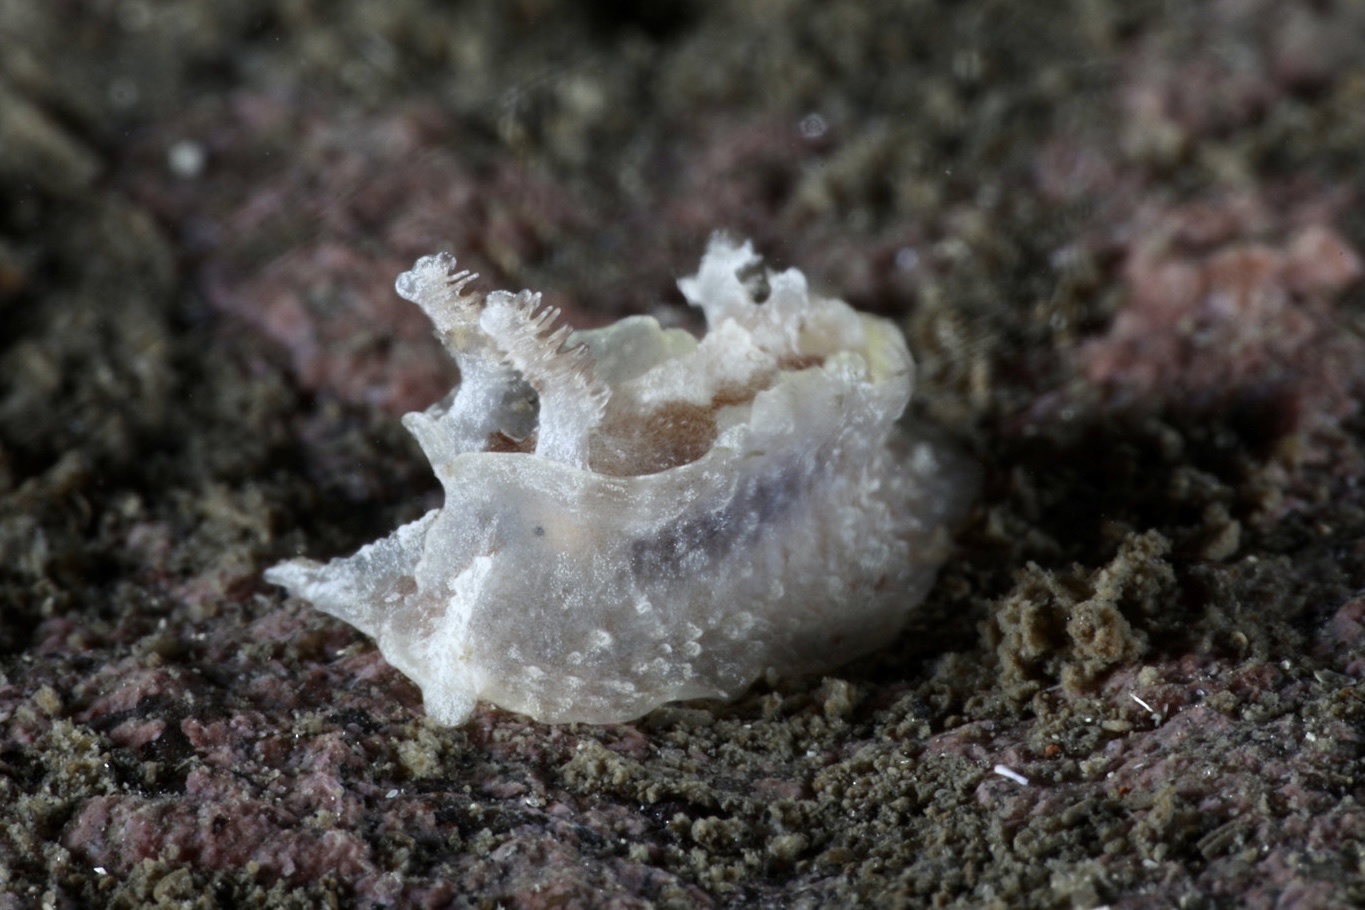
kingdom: Animalia
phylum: Mollusca
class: Gastropoda
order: Nudibranchia
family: Goniodorididae
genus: Pelagella
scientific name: Pelagella castanea
